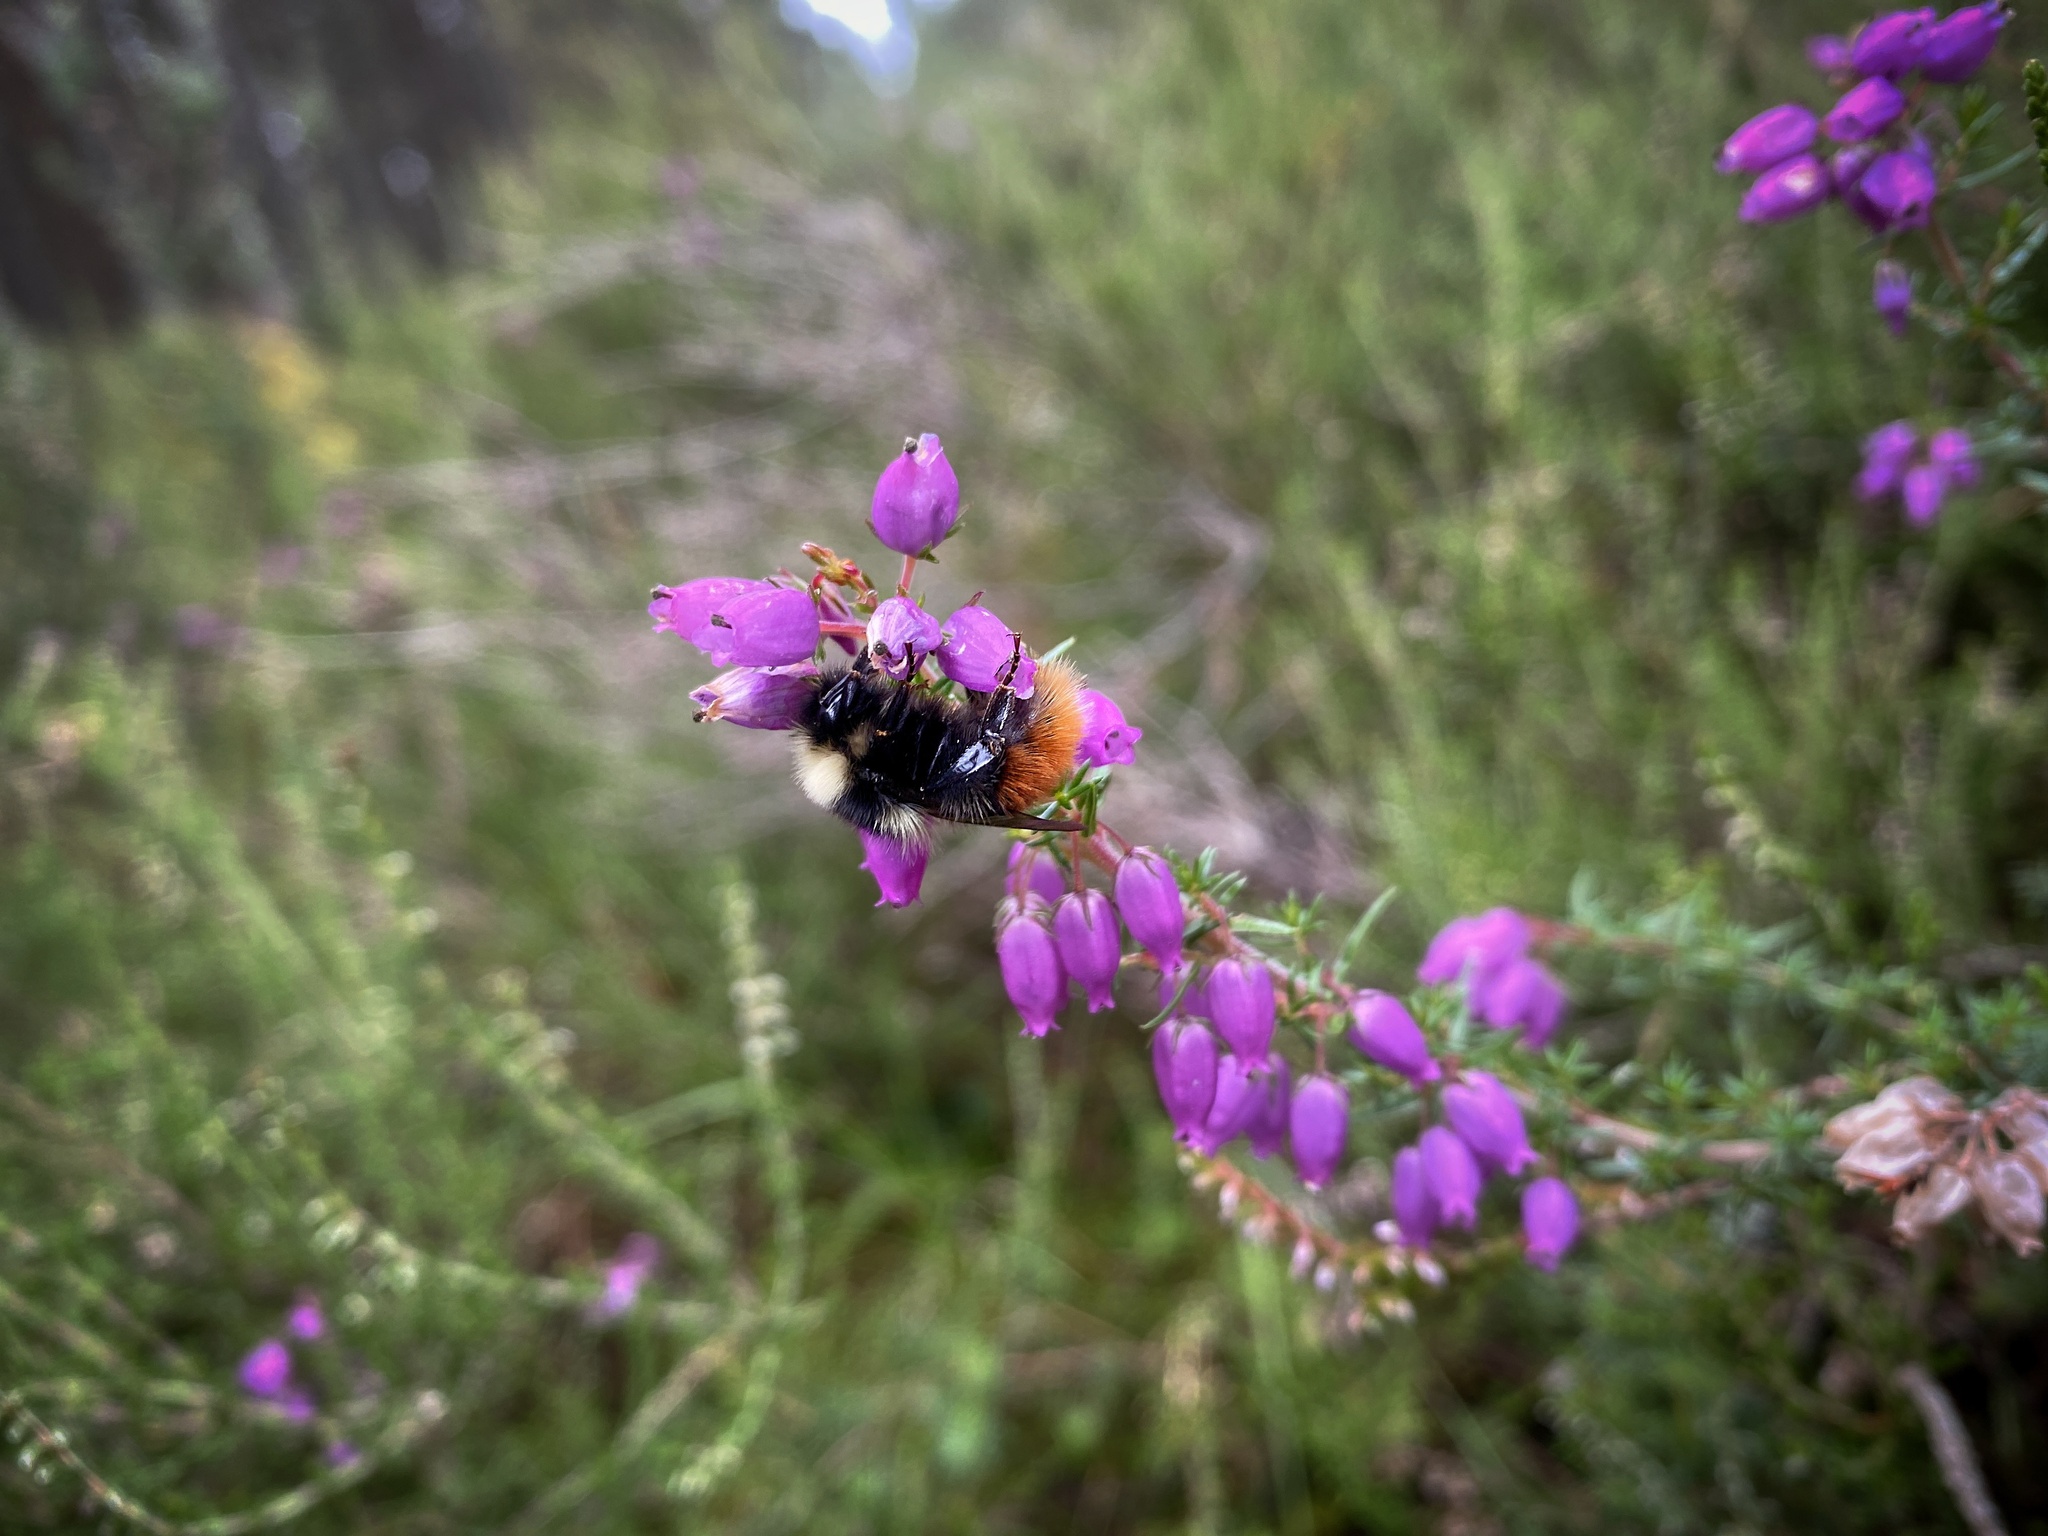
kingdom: Animalia
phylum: Arthropoda
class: Insecta
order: Hymenoptera
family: Apidae
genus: Bombus
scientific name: Bombus monticola
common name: Bilberry humble-bee
